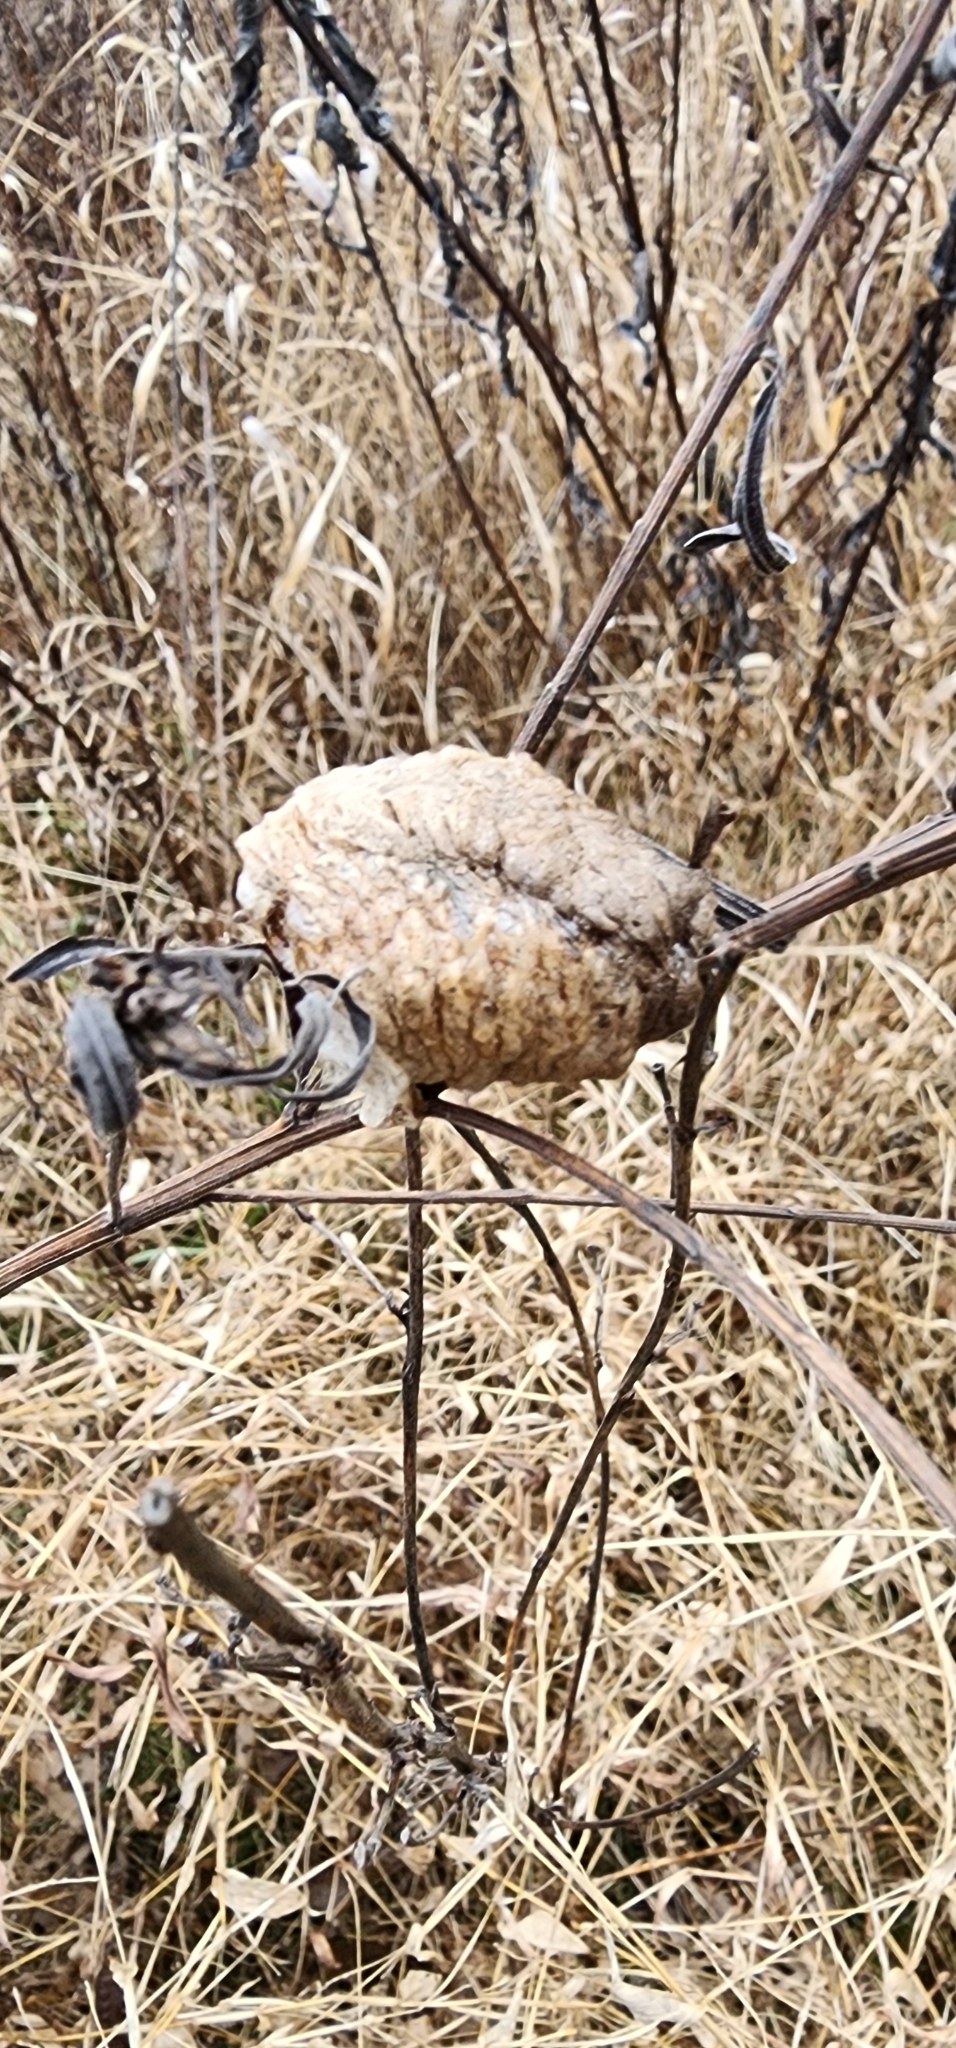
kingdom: Animalia
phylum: Arthropoda
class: Insecta
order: Mantodea
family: Mantidae
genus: Tenodera
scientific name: Tenodera sinensis
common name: Chinese mantis
